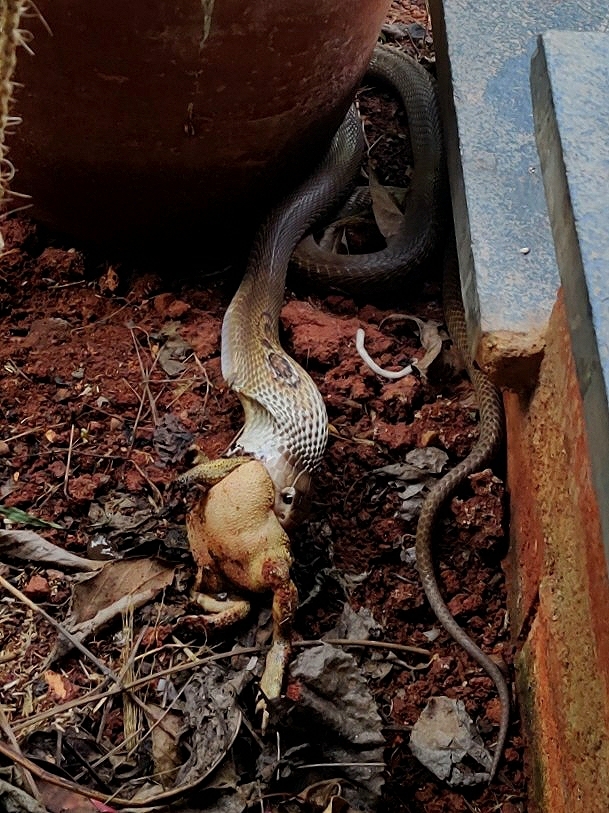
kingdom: Animalia
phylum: Chordata
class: Squamata
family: Elapidae
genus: Naja
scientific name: Naja naja
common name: Indian cobra
